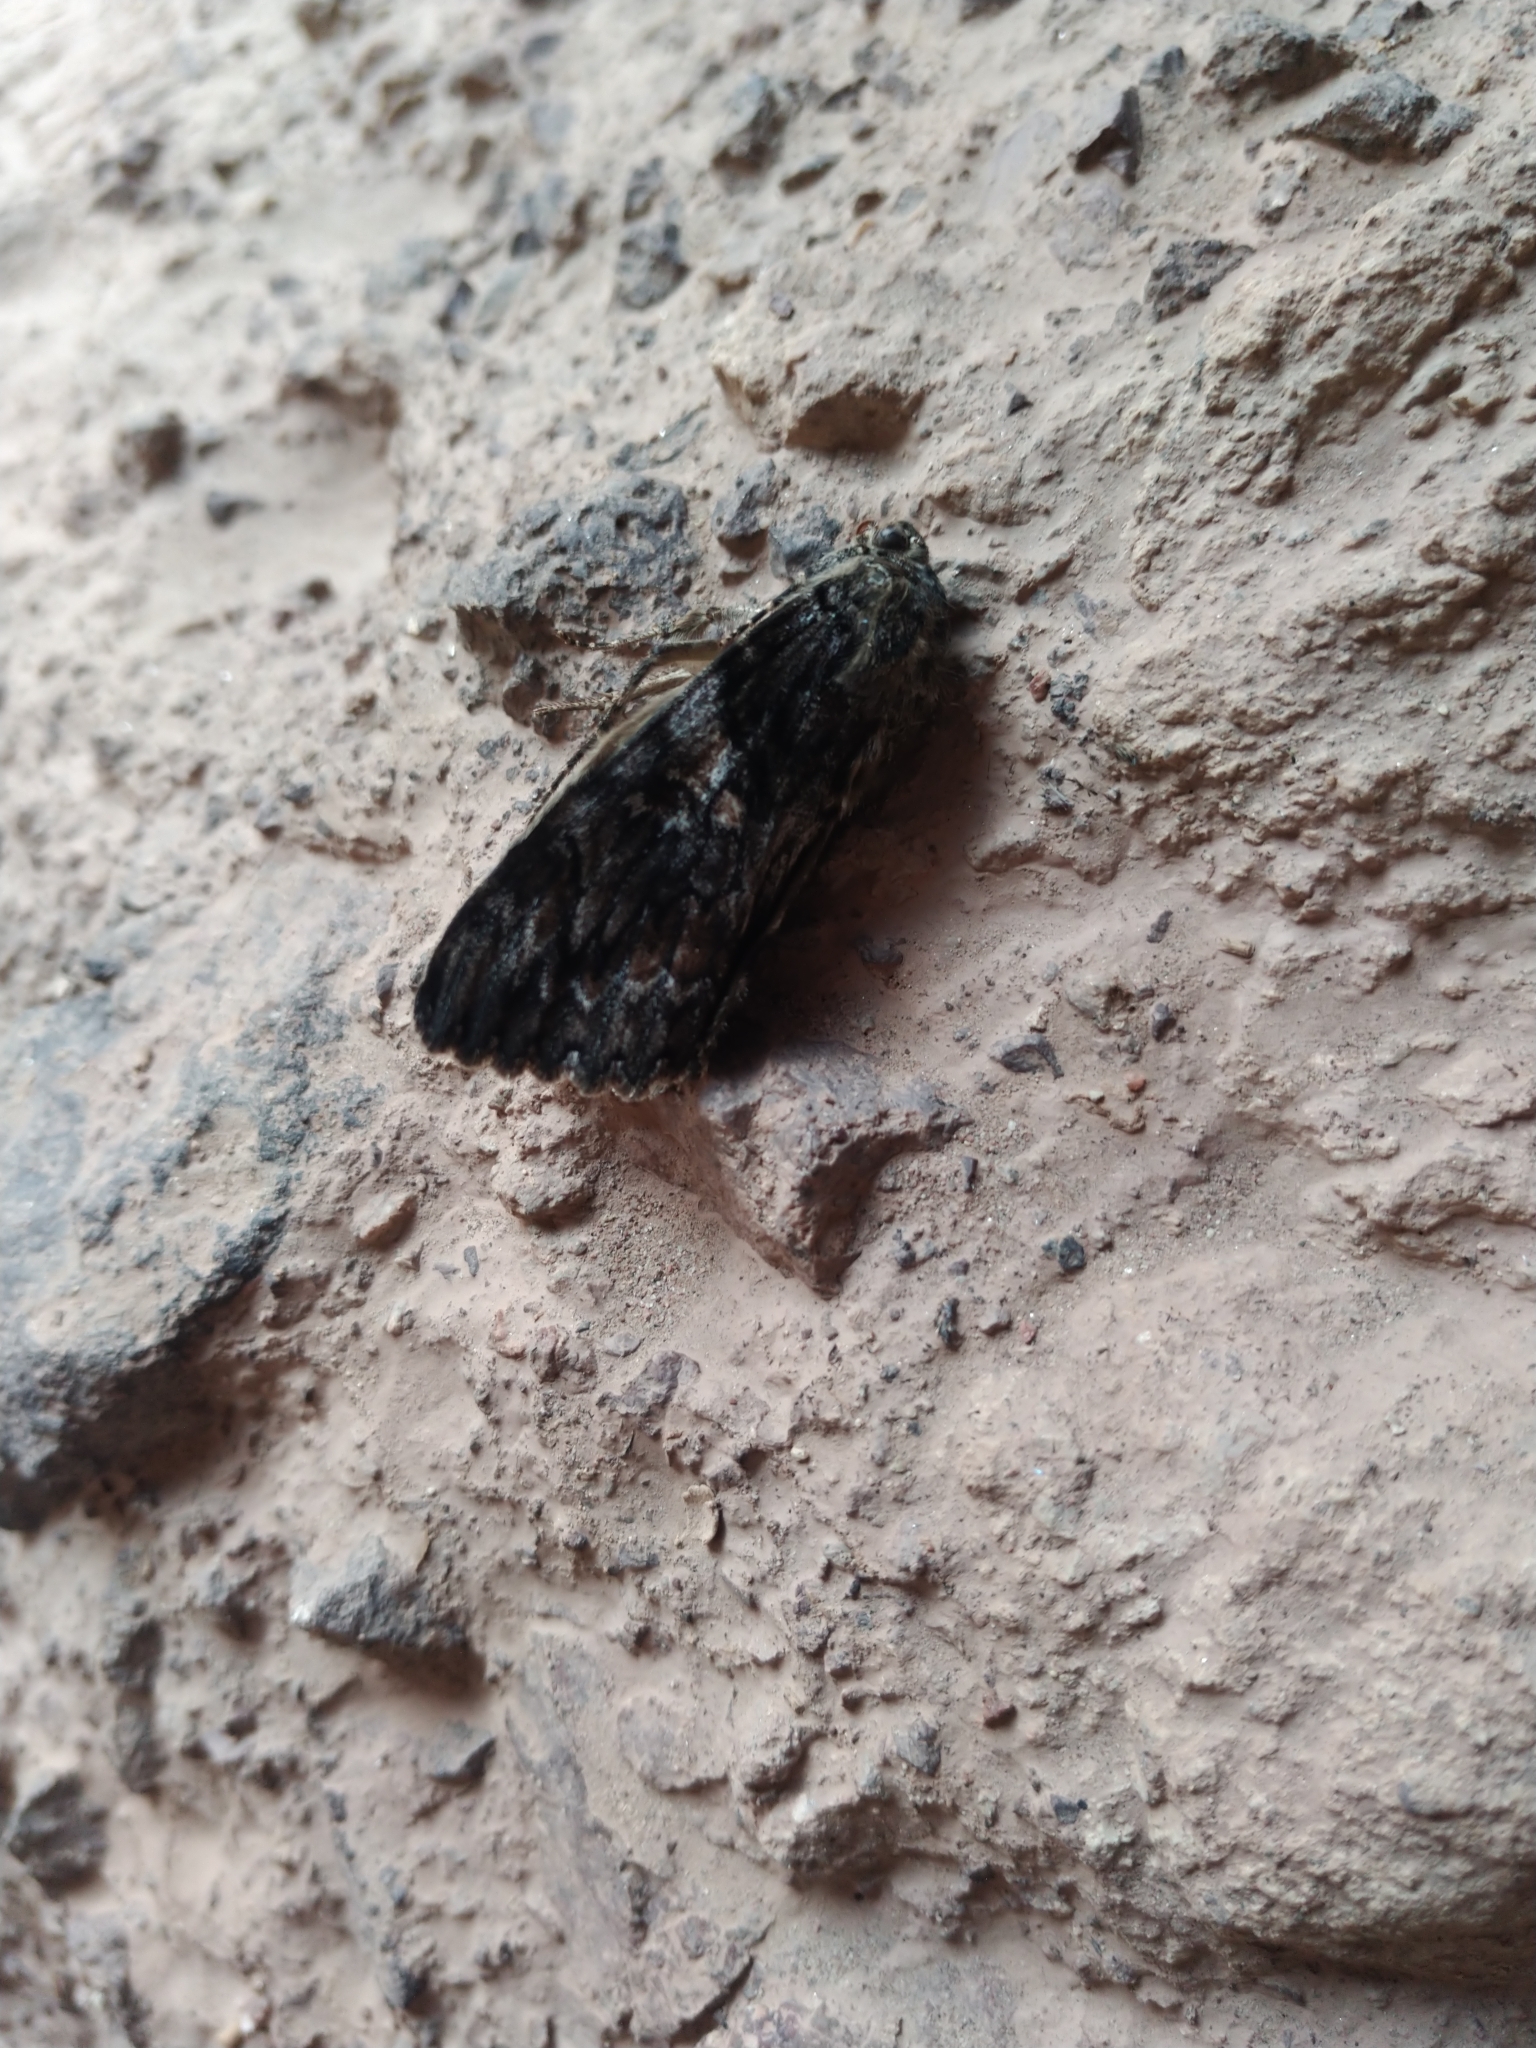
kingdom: Animalia
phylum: Arthropoda
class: Insecta
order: Lepidoptera
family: Erebidae
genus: Catocala
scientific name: Catocala aholibah
